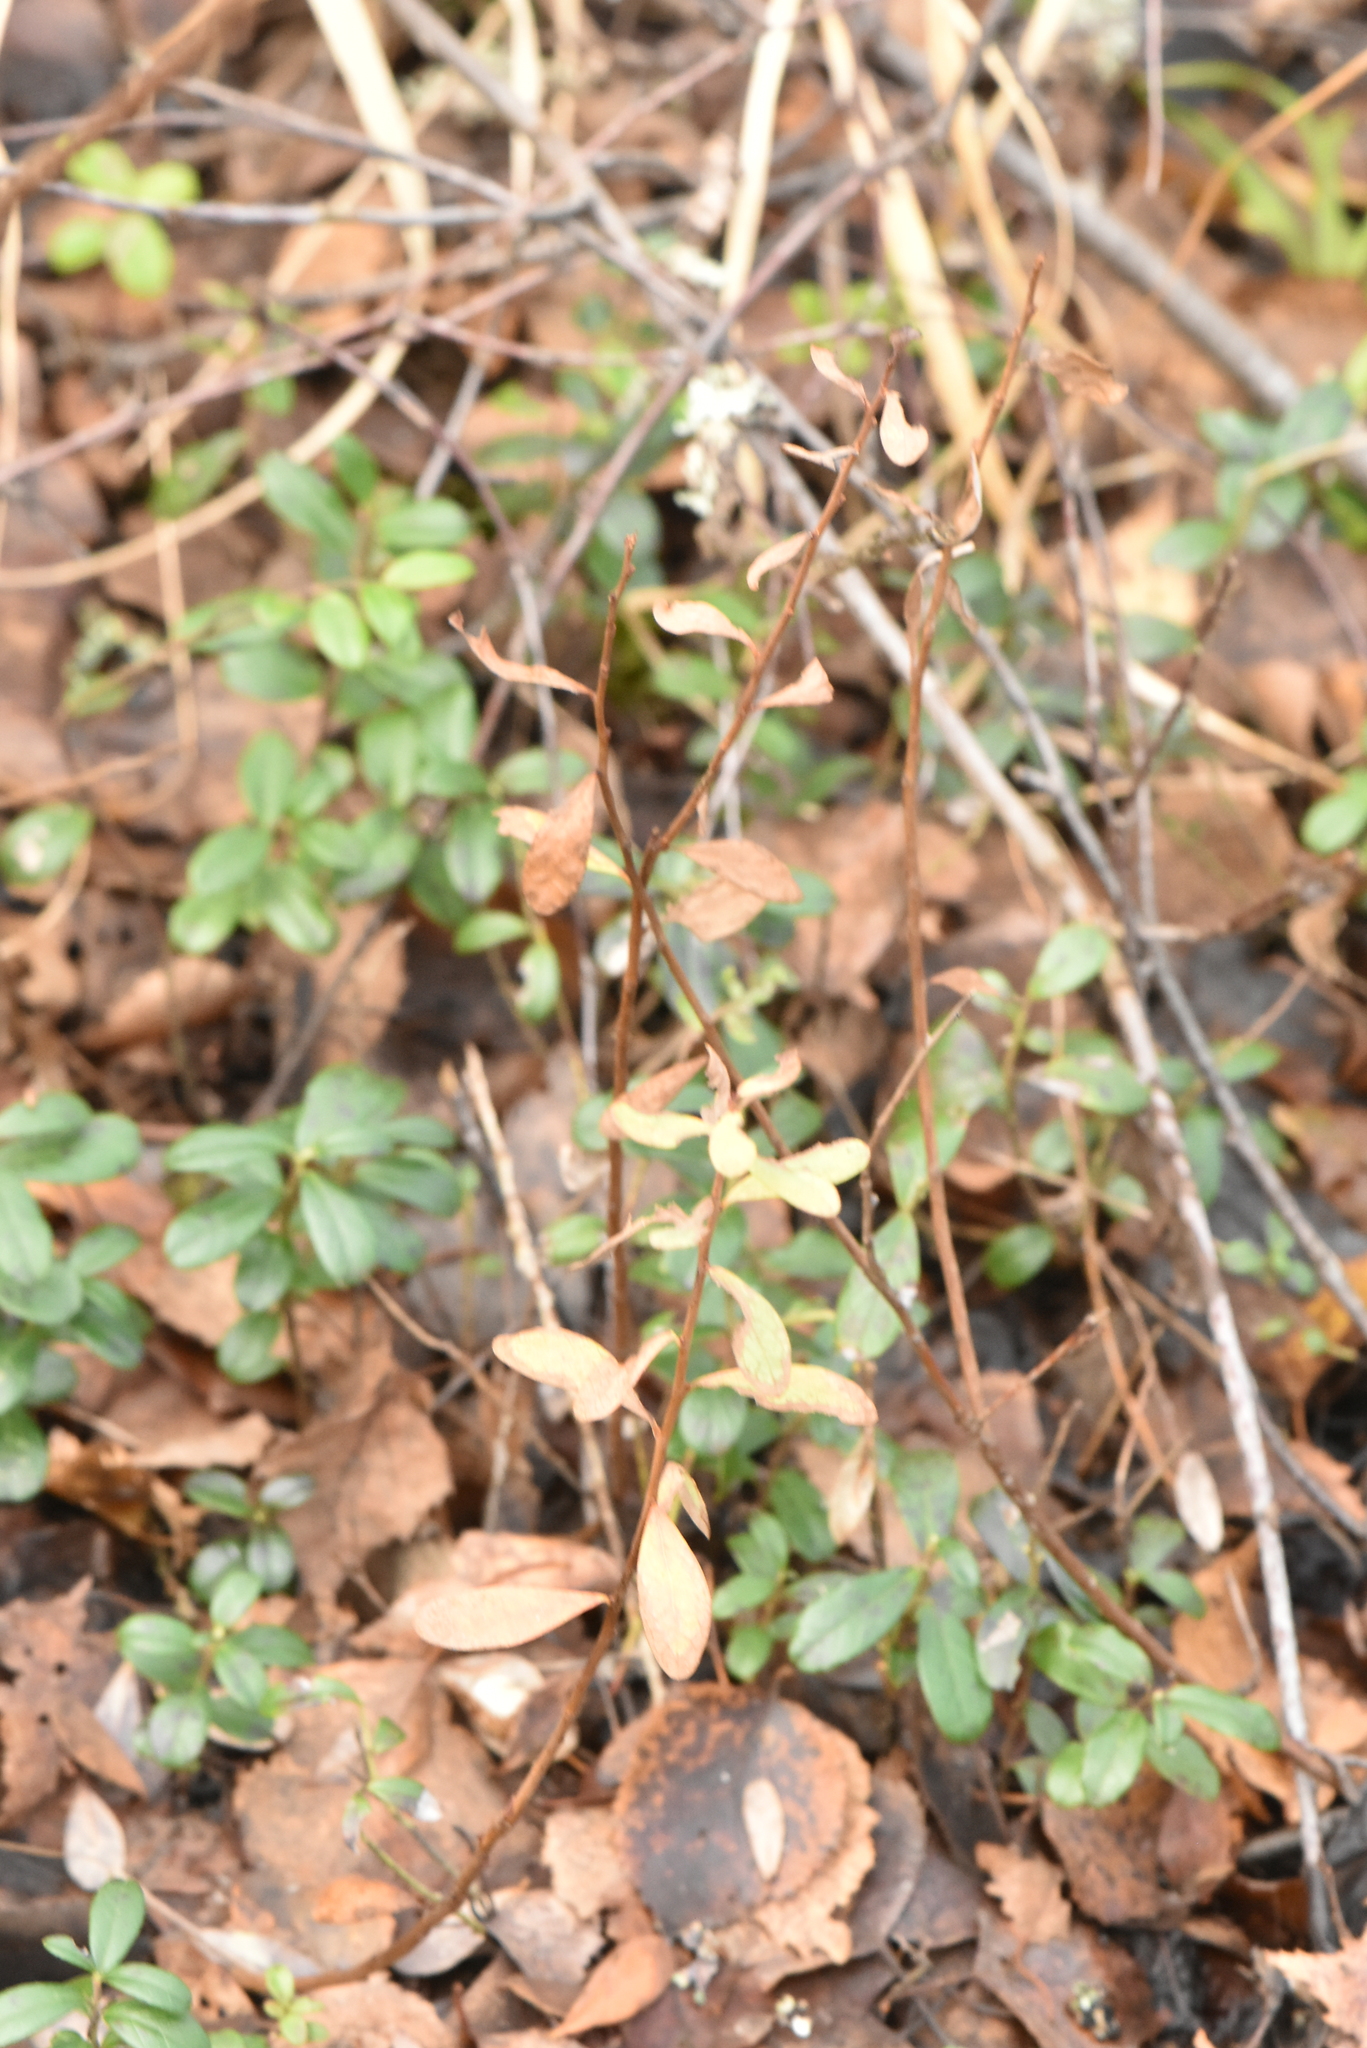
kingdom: Plantae
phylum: Tracheophyta
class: Magnoliopsida
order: Ericales
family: Ericaceae
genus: Vaccinium
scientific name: Vaccinium uliginosum
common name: Bog bilberry
